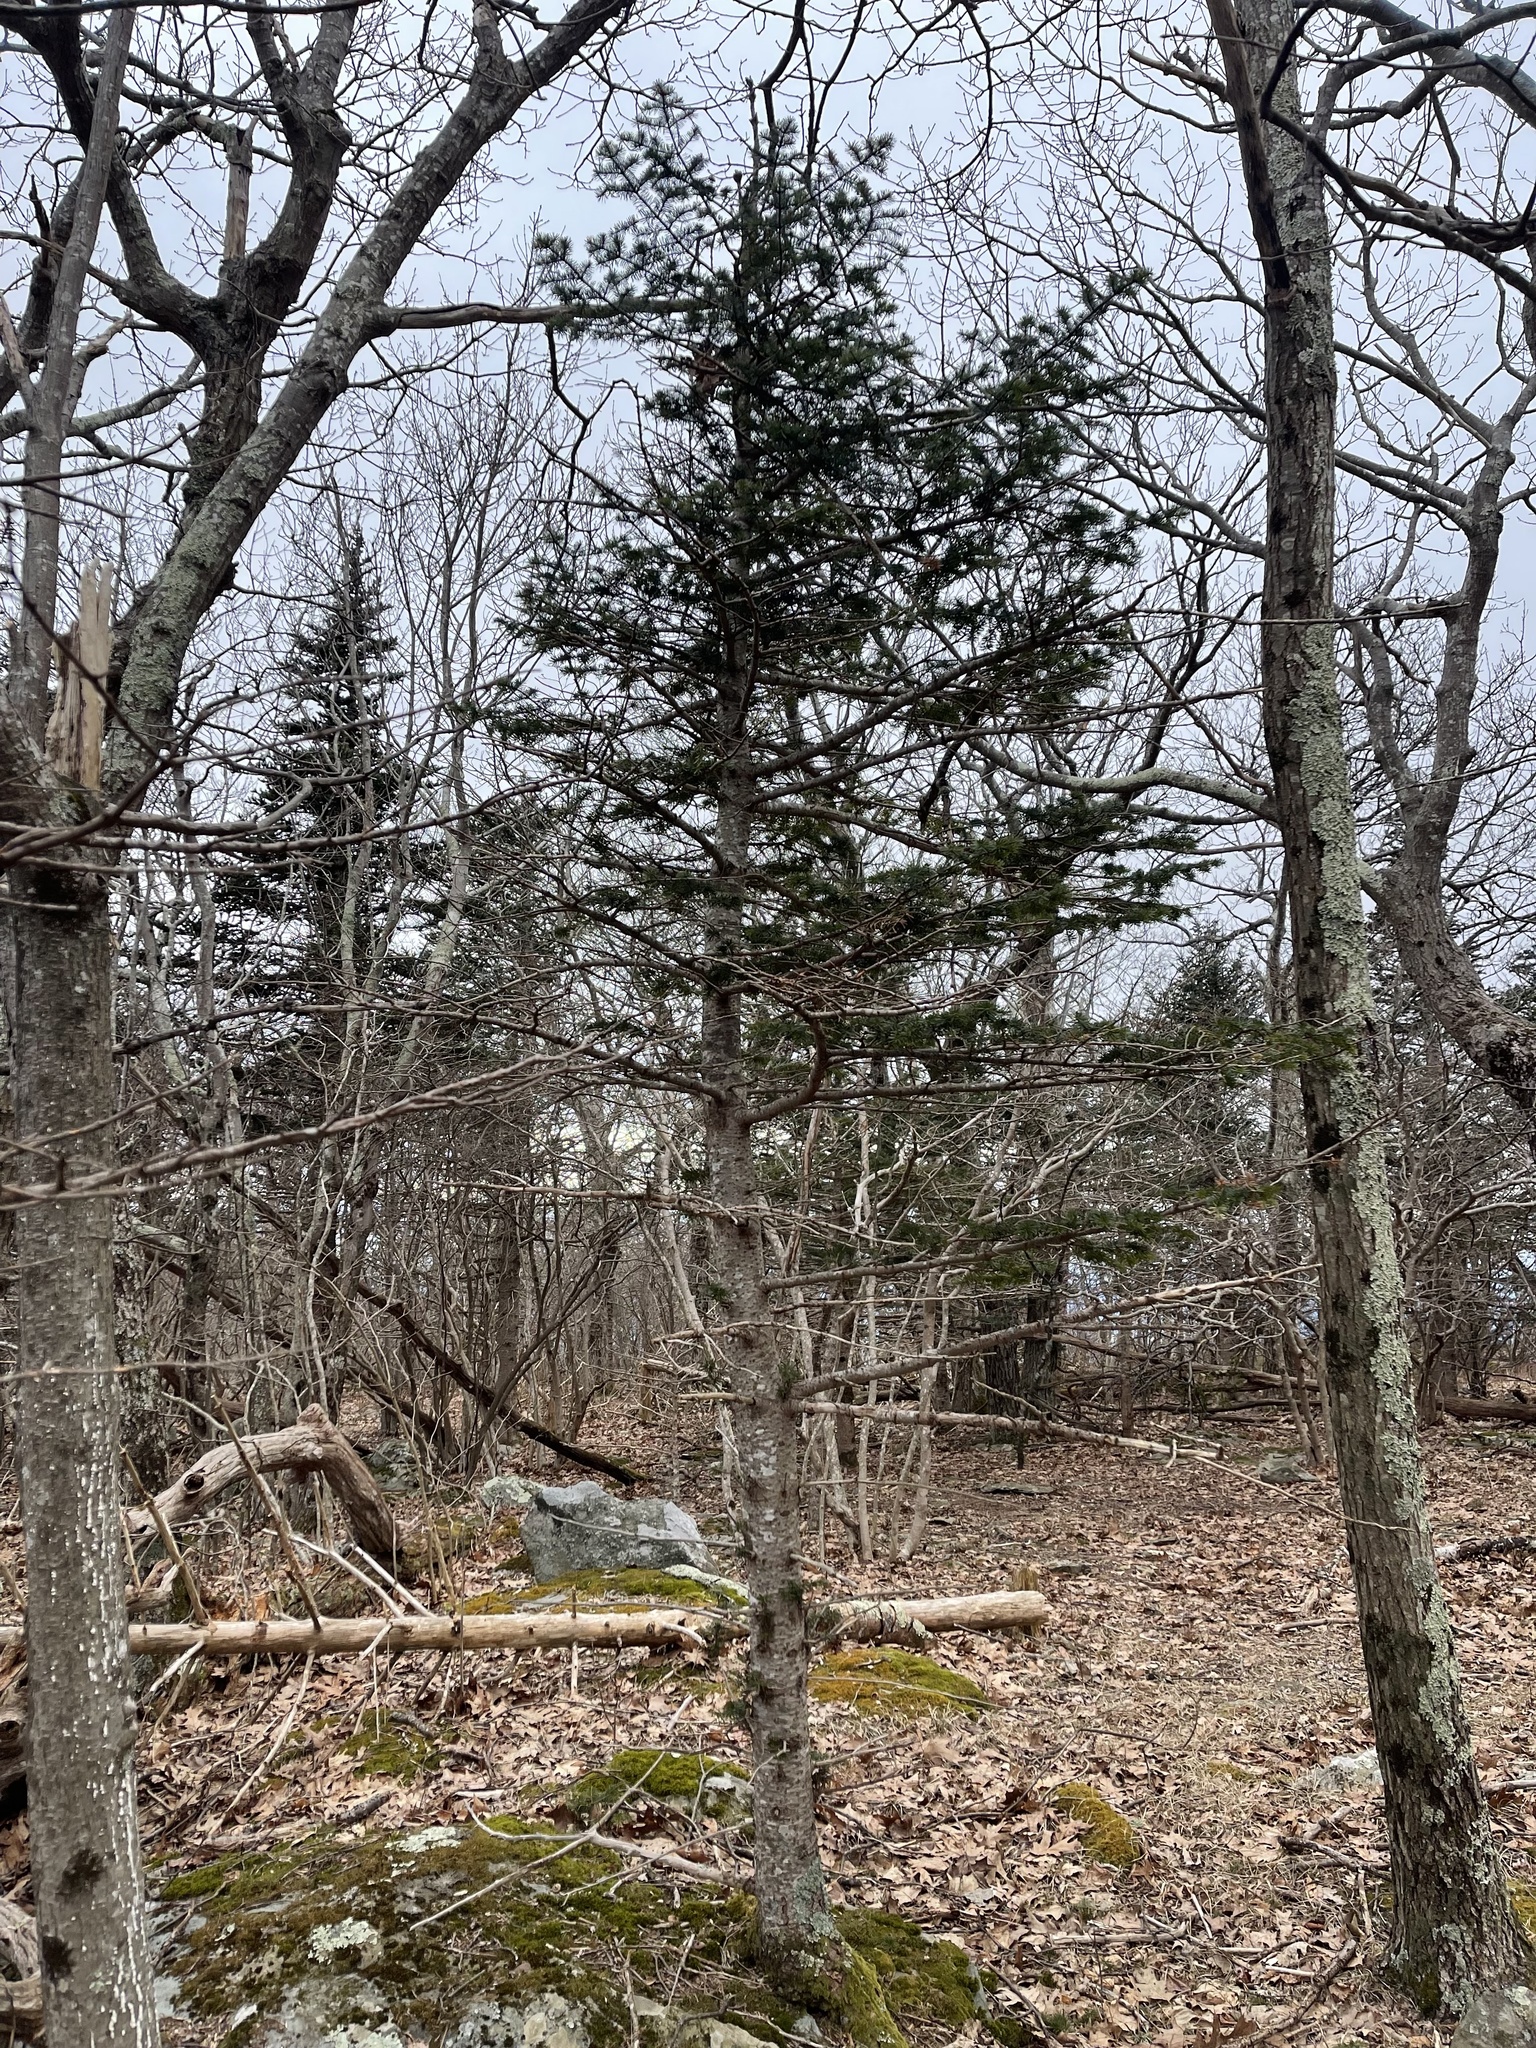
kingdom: Plantae
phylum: Tracheophyta
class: Pinopsida
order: Pinales
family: Pinaceae
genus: Abies
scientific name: Abies balsamea
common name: Balsam fir
